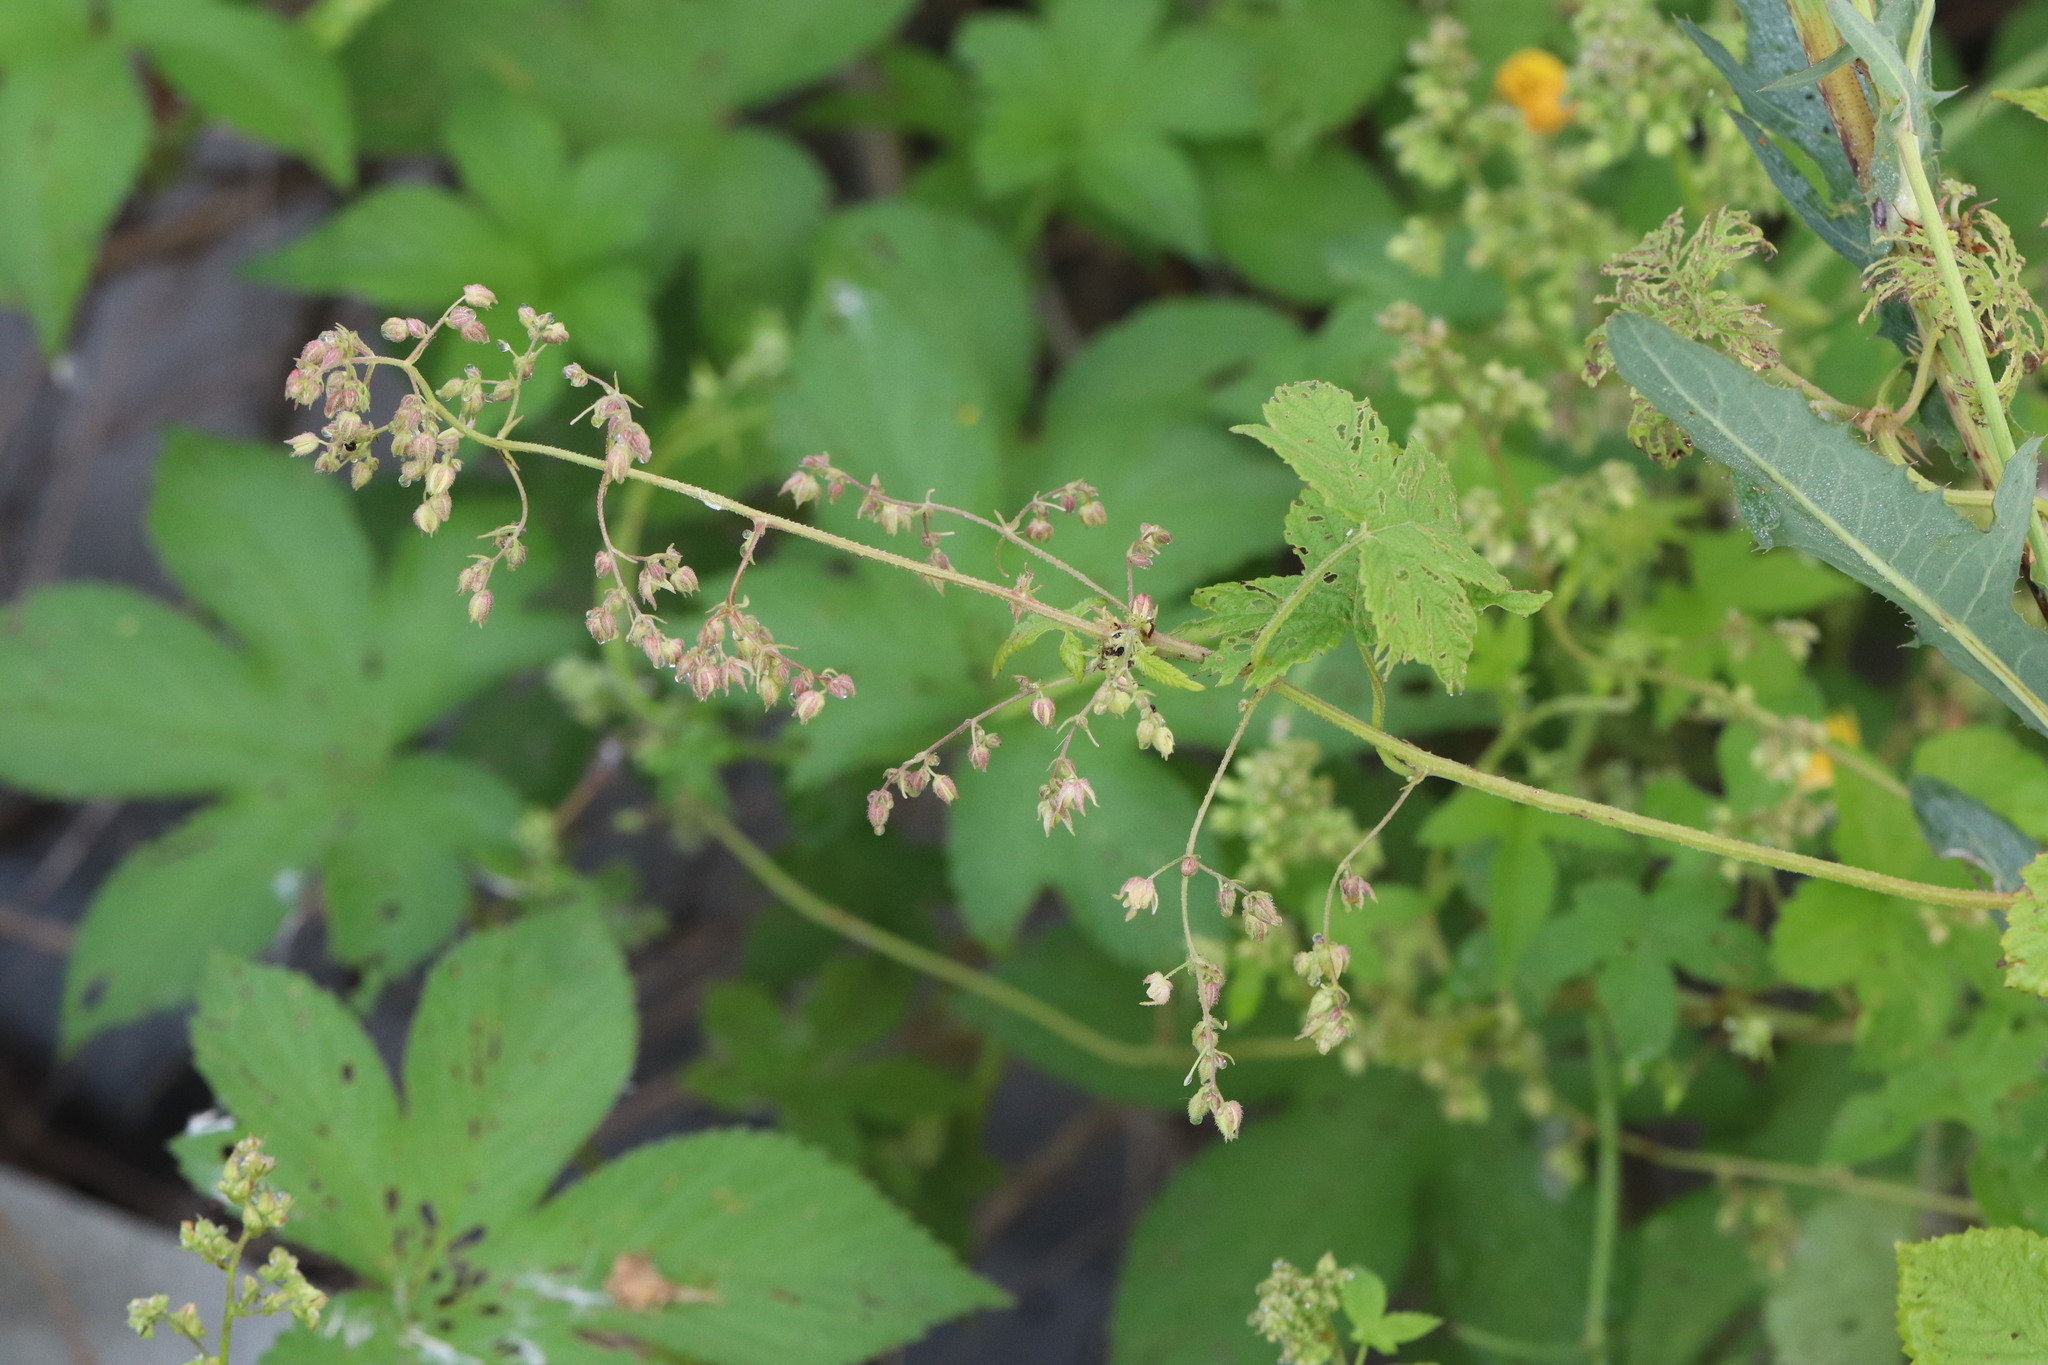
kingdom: Plantae
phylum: Tracheophyta
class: Magnoliopsida
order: Rosales
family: Cannabaceae
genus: Humulus
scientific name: Humulus scandens
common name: Japanese hop
